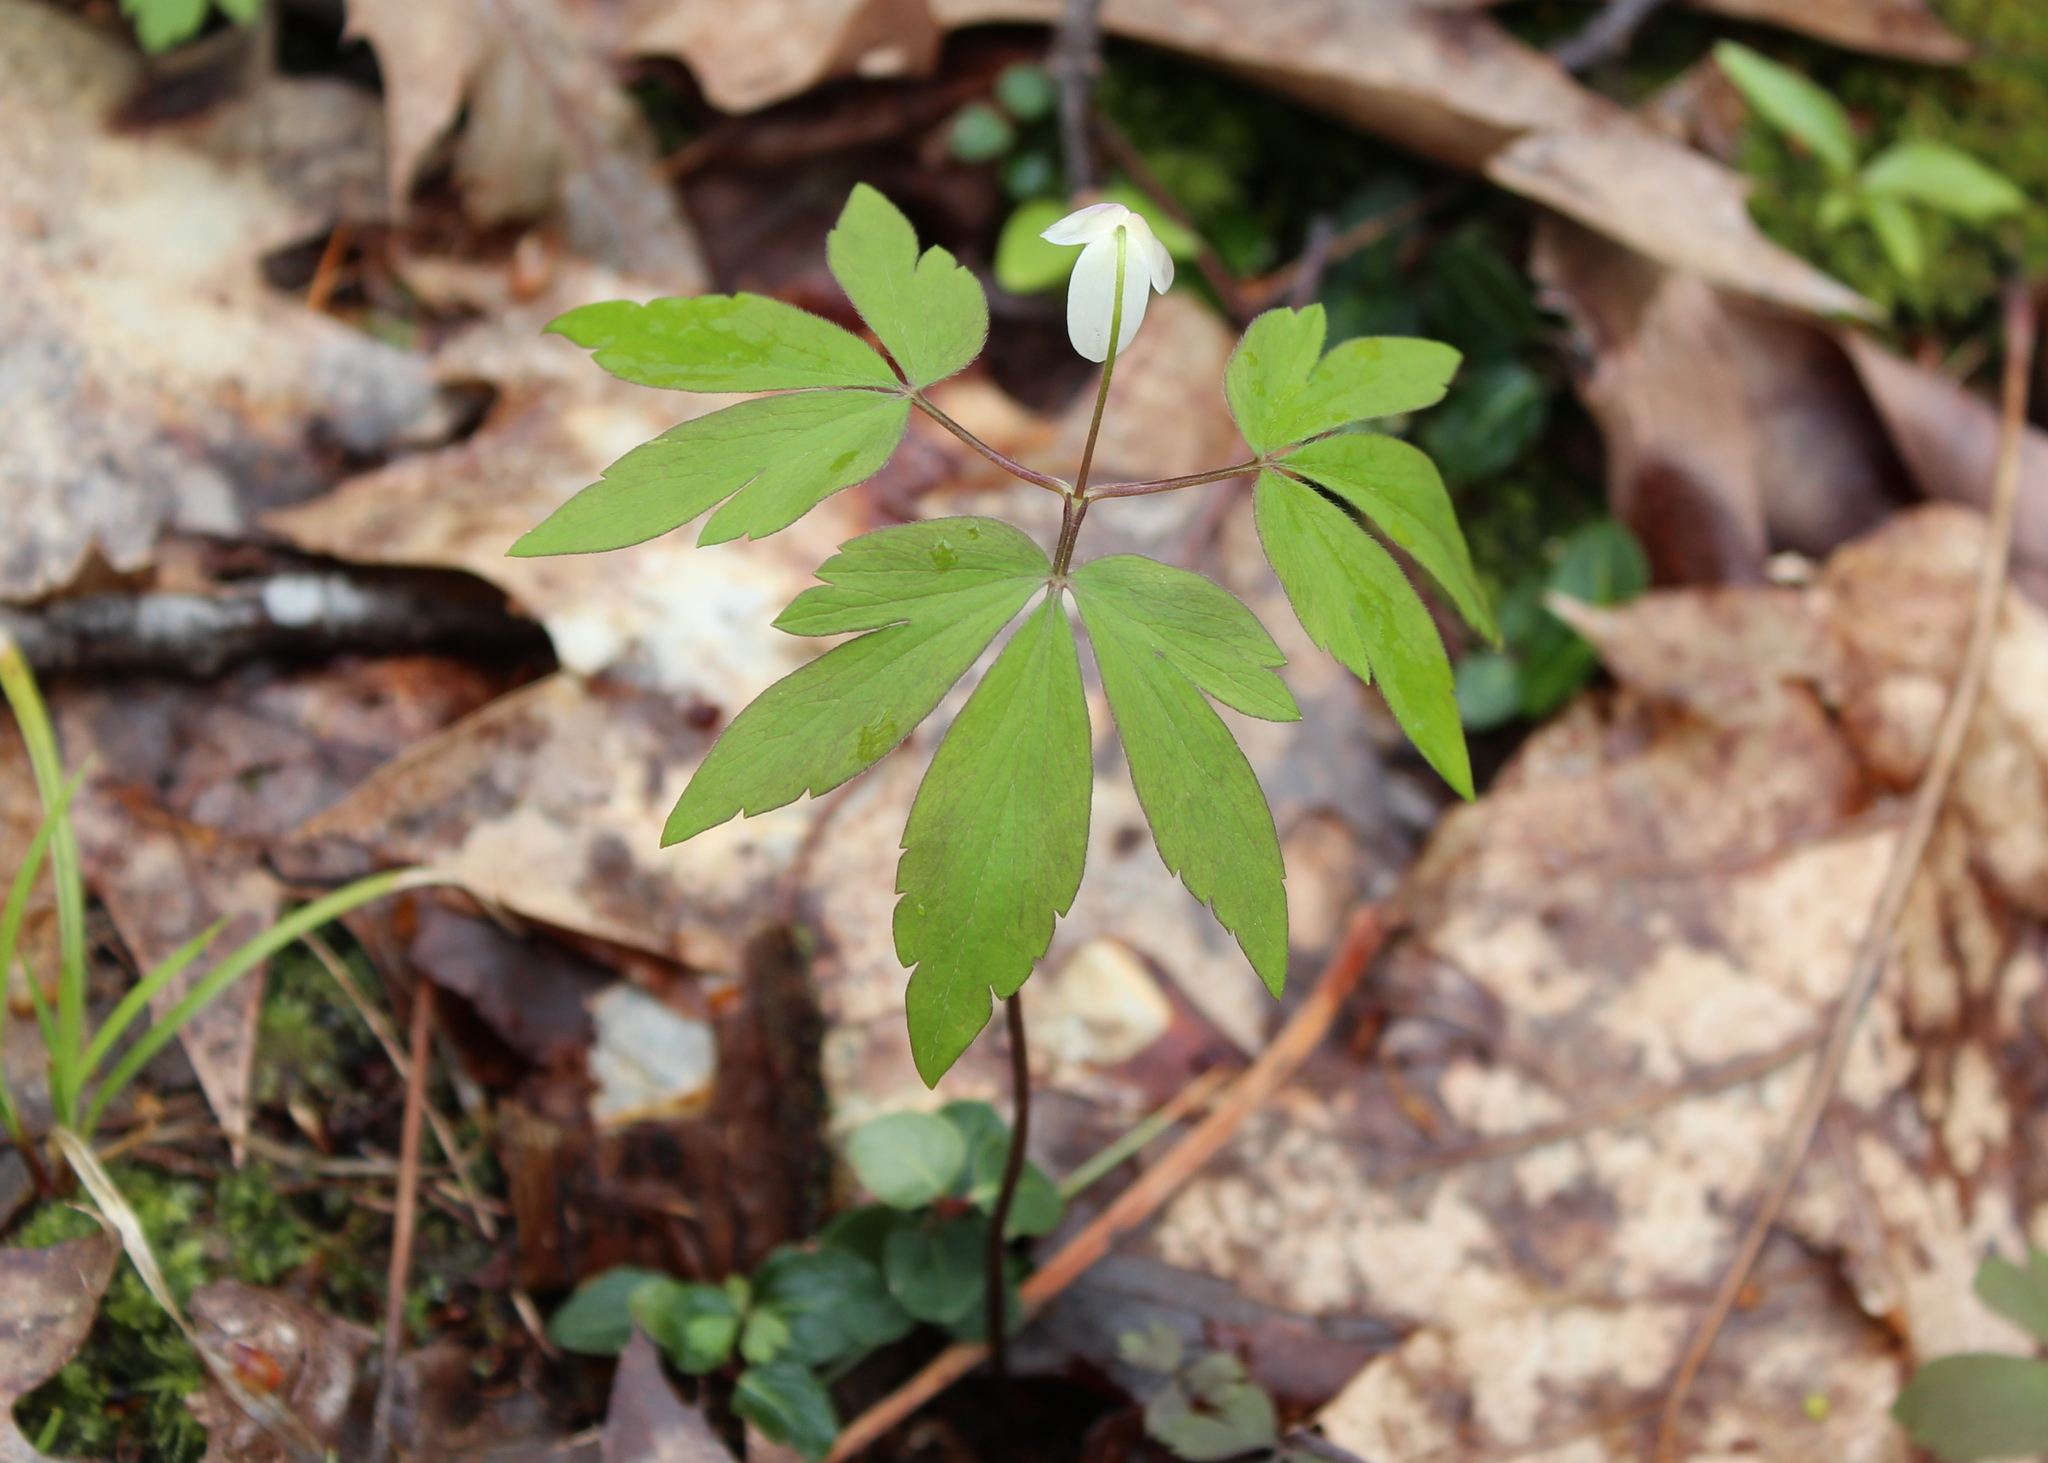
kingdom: Plantae
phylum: Tracheophyta
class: Magnoliopsida
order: Ranunculales
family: Ranunculaceae
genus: Anemone
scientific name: Anemone quinquefolia
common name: Wood anemone
